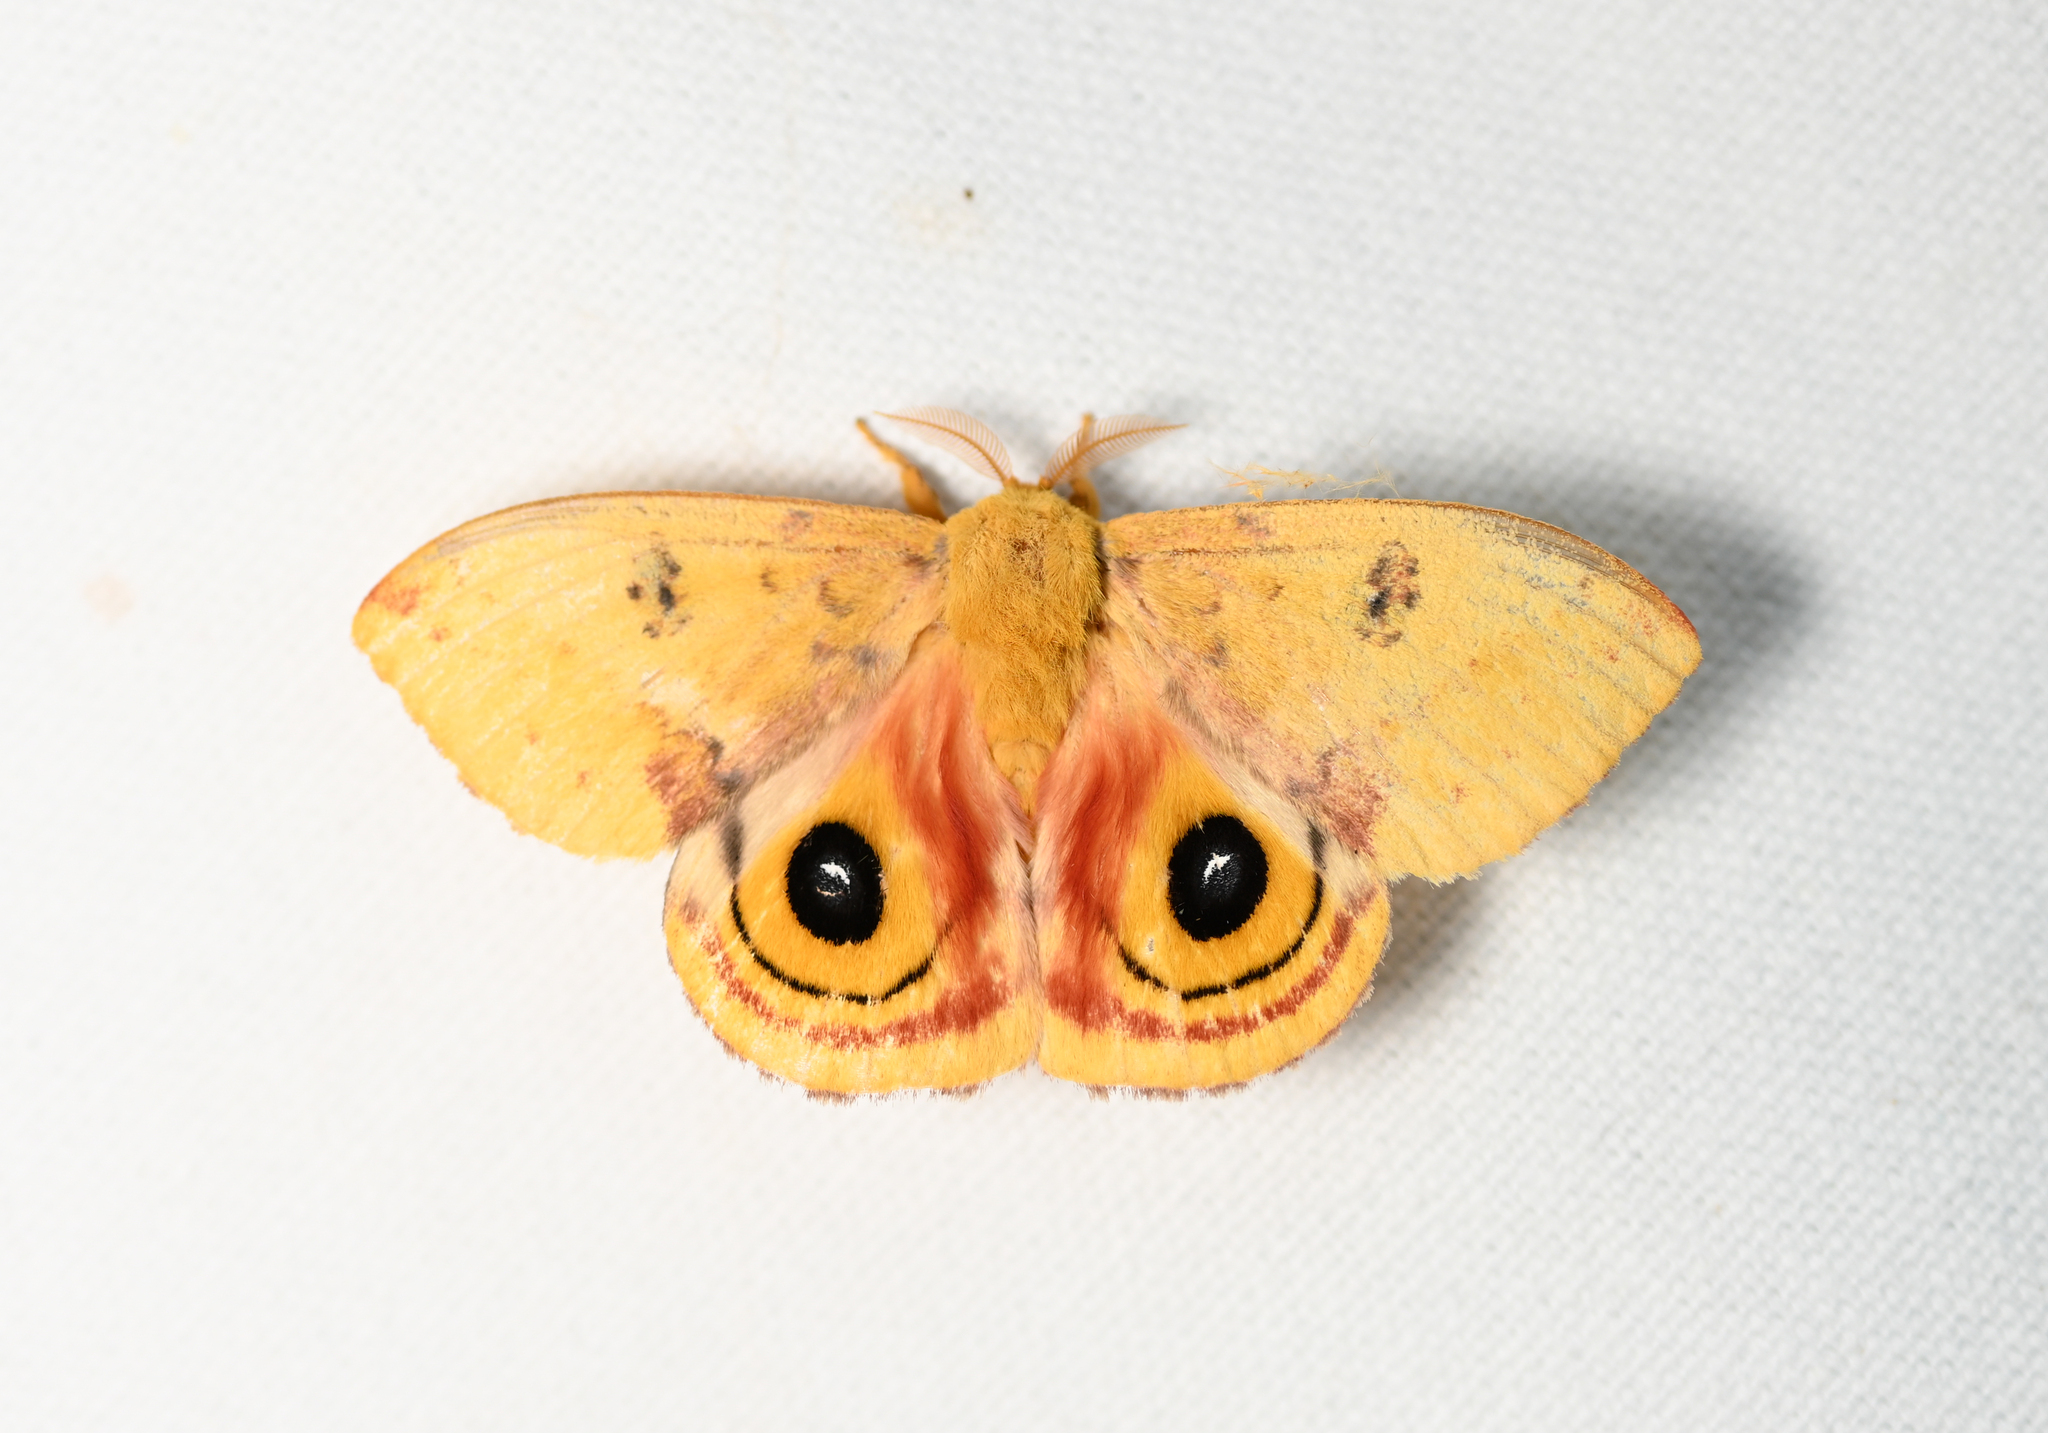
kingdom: Animalia
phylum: Arthropoda
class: Insecta
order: Lepidoptera
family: Saturniidae
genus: Automeris
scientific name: Automeris io
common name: Io moth
